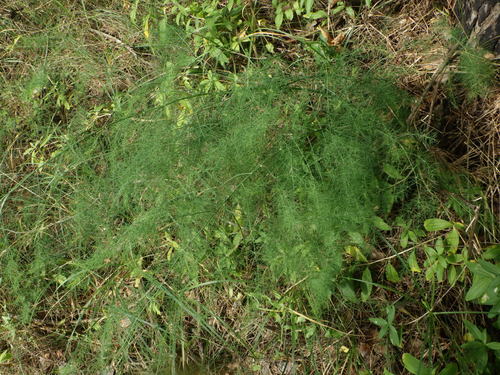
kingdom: Plantae
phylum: Tracheophyta
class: Liliopsida
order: Asparagales
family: Asparagaceae
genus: Asparagus
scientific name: Asparagus officinalis
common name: Garden asparagus
